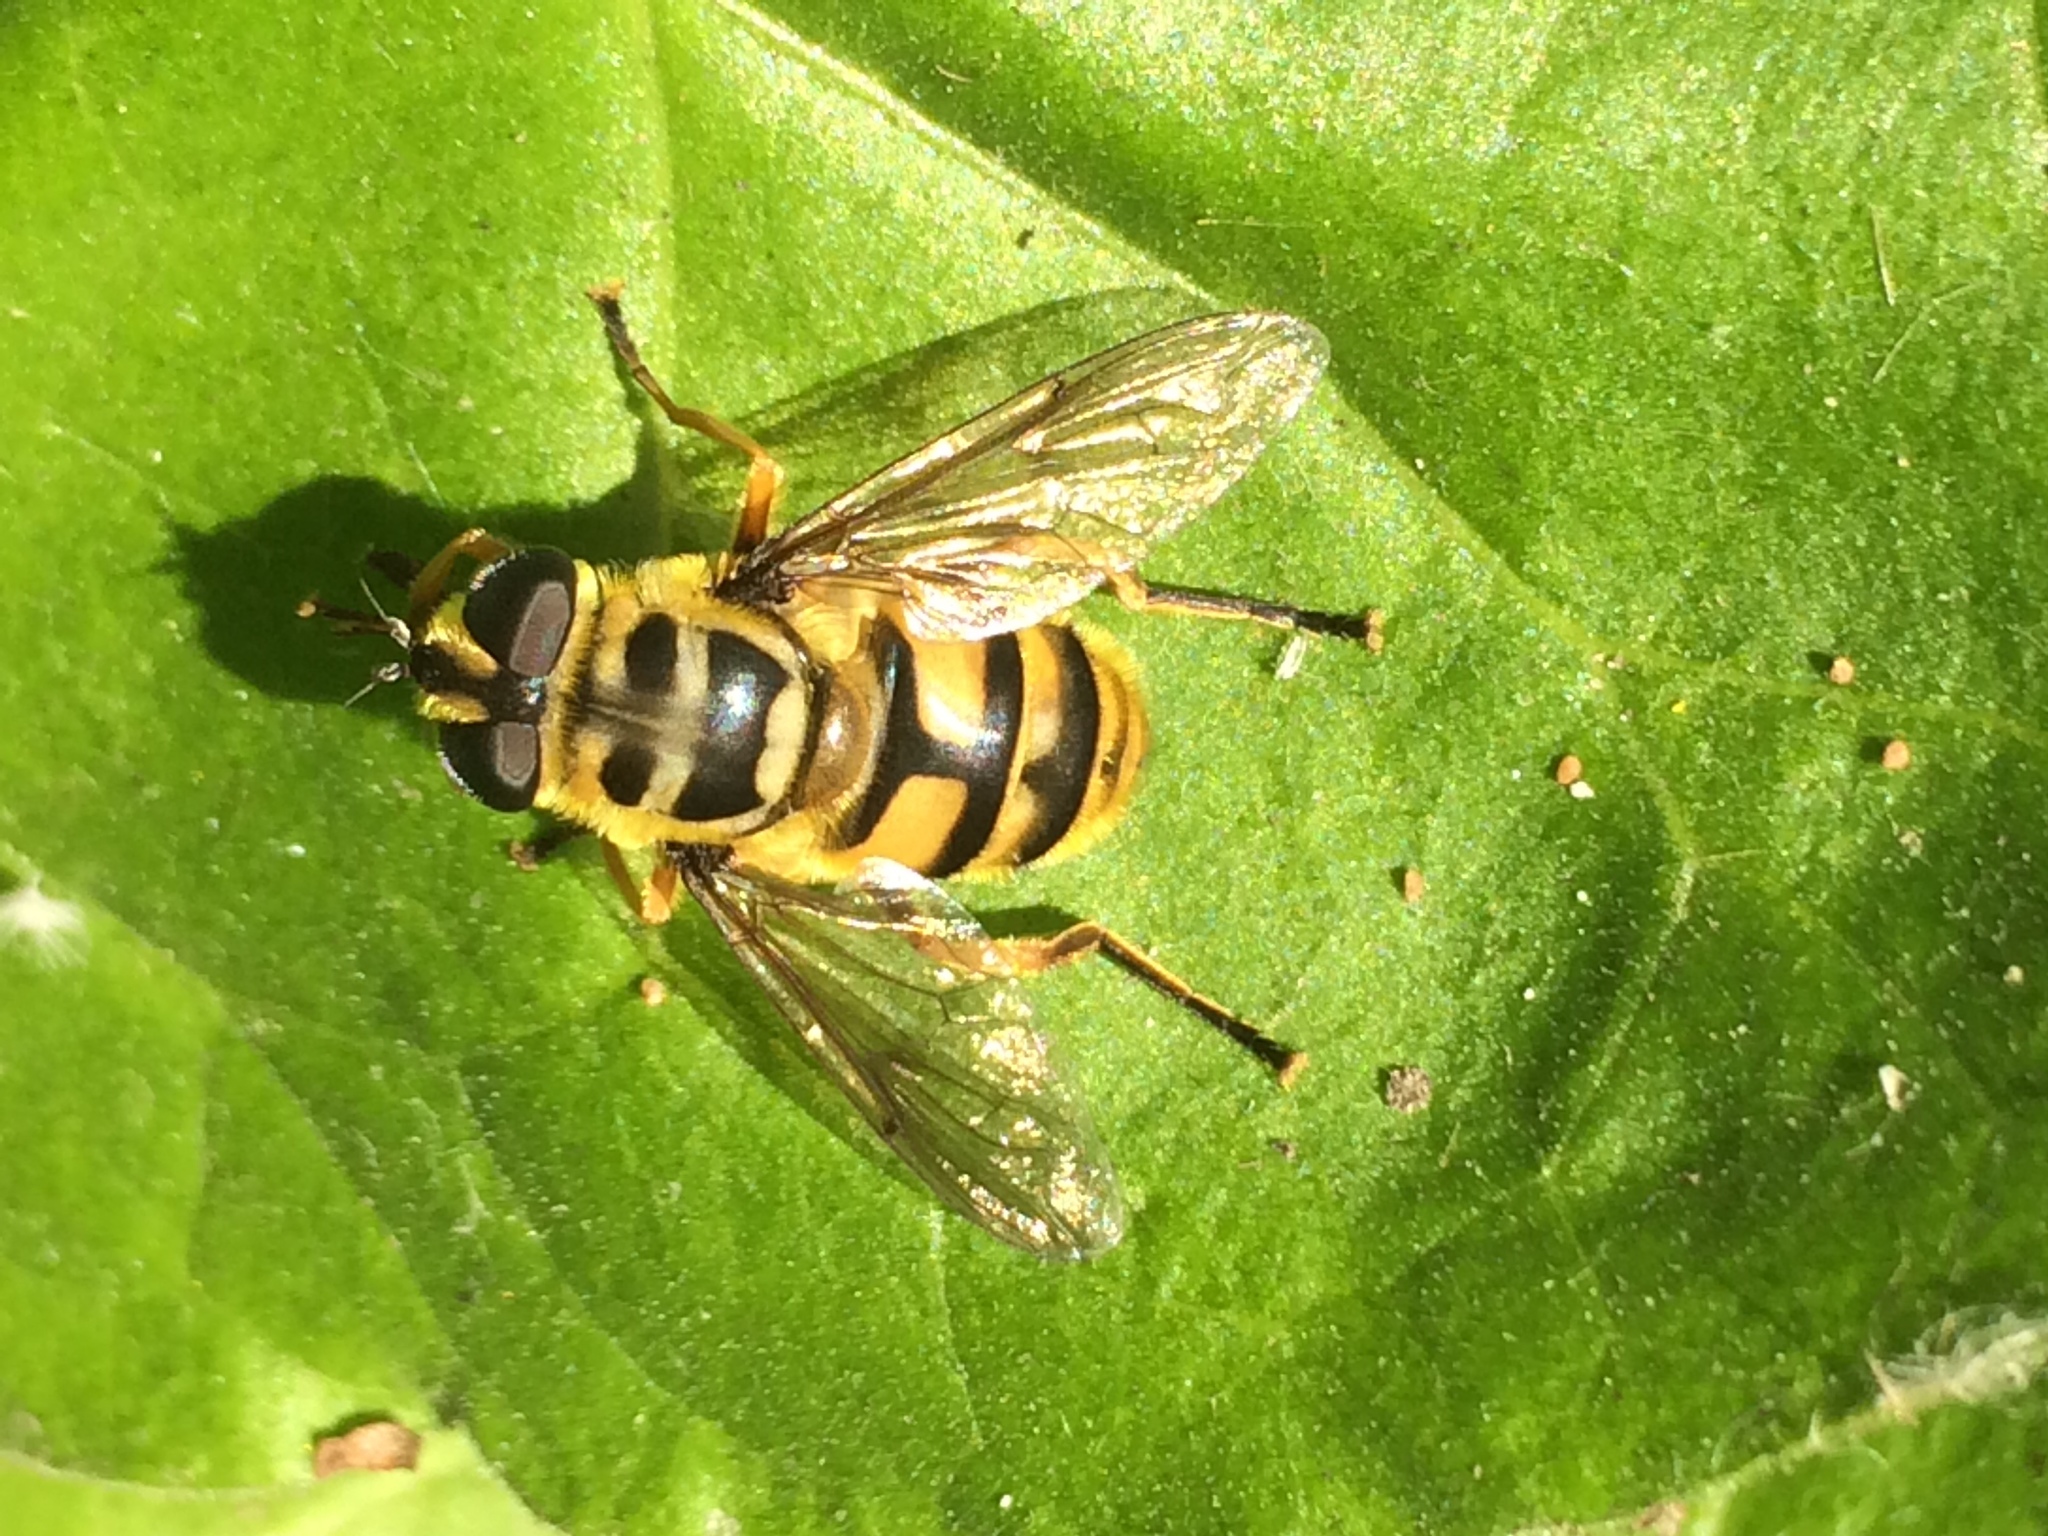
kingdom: Animalia
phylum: Arthropoda
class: Insecta
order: Diptera
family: Syrphidae
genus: Myathropa
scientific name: Myathropa florea
